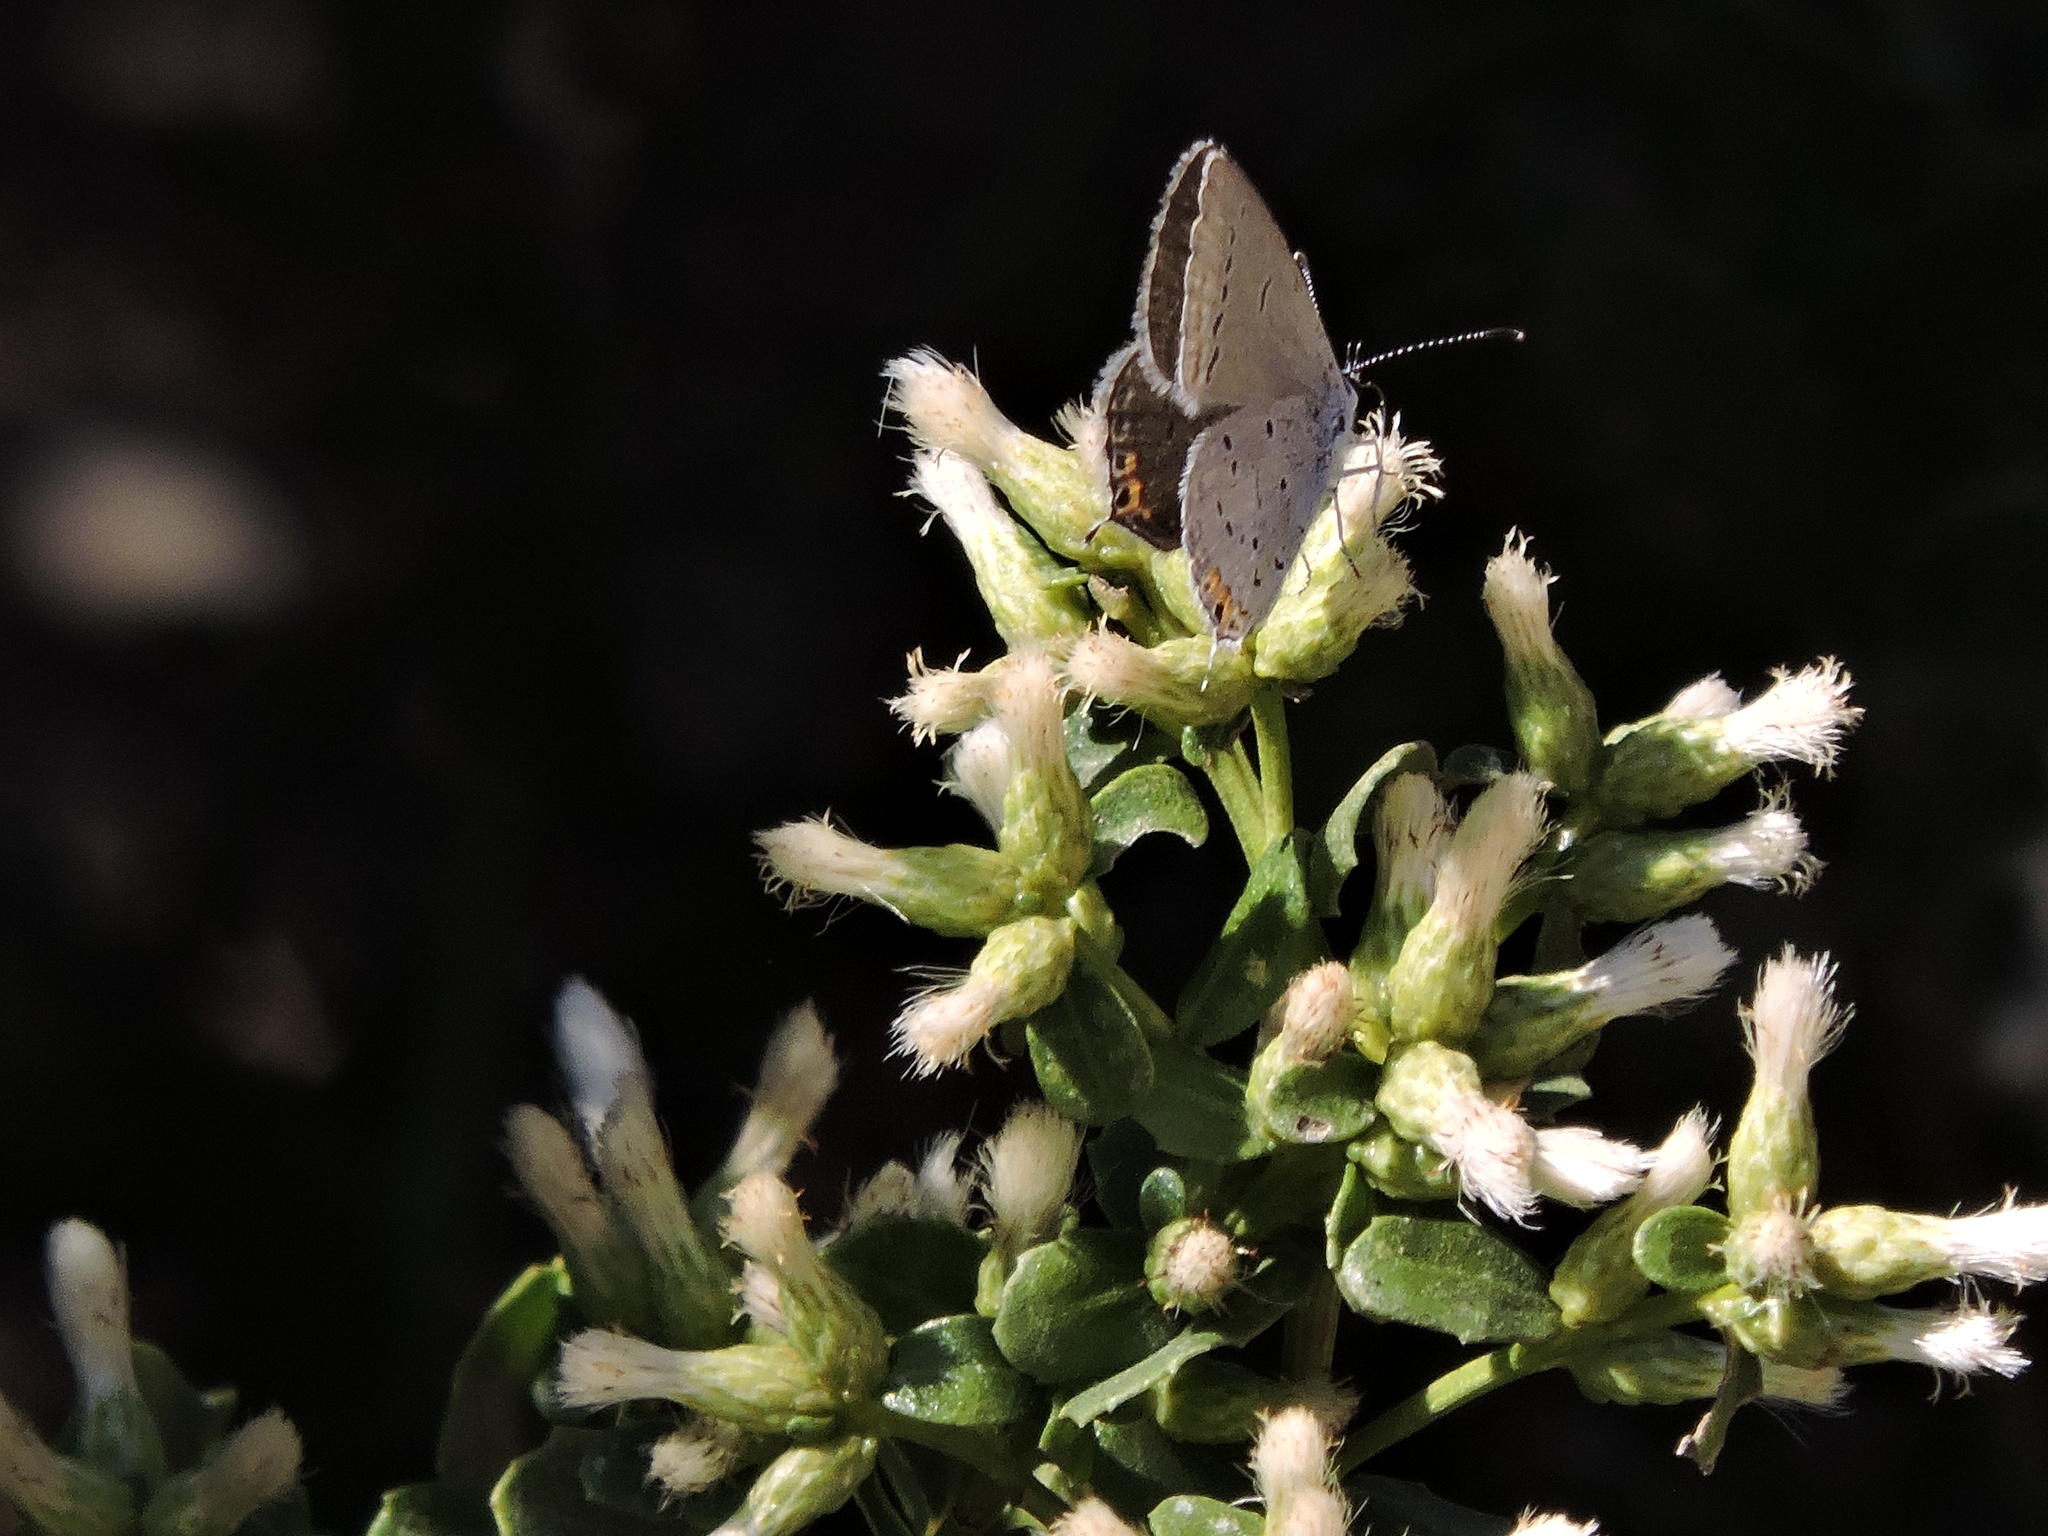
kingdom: Animalia
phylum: Arthropoda
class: Insecta
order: Lepidoptera
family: Lycaenidae
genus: Elkalyce
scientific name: Elkalyce amyntula
